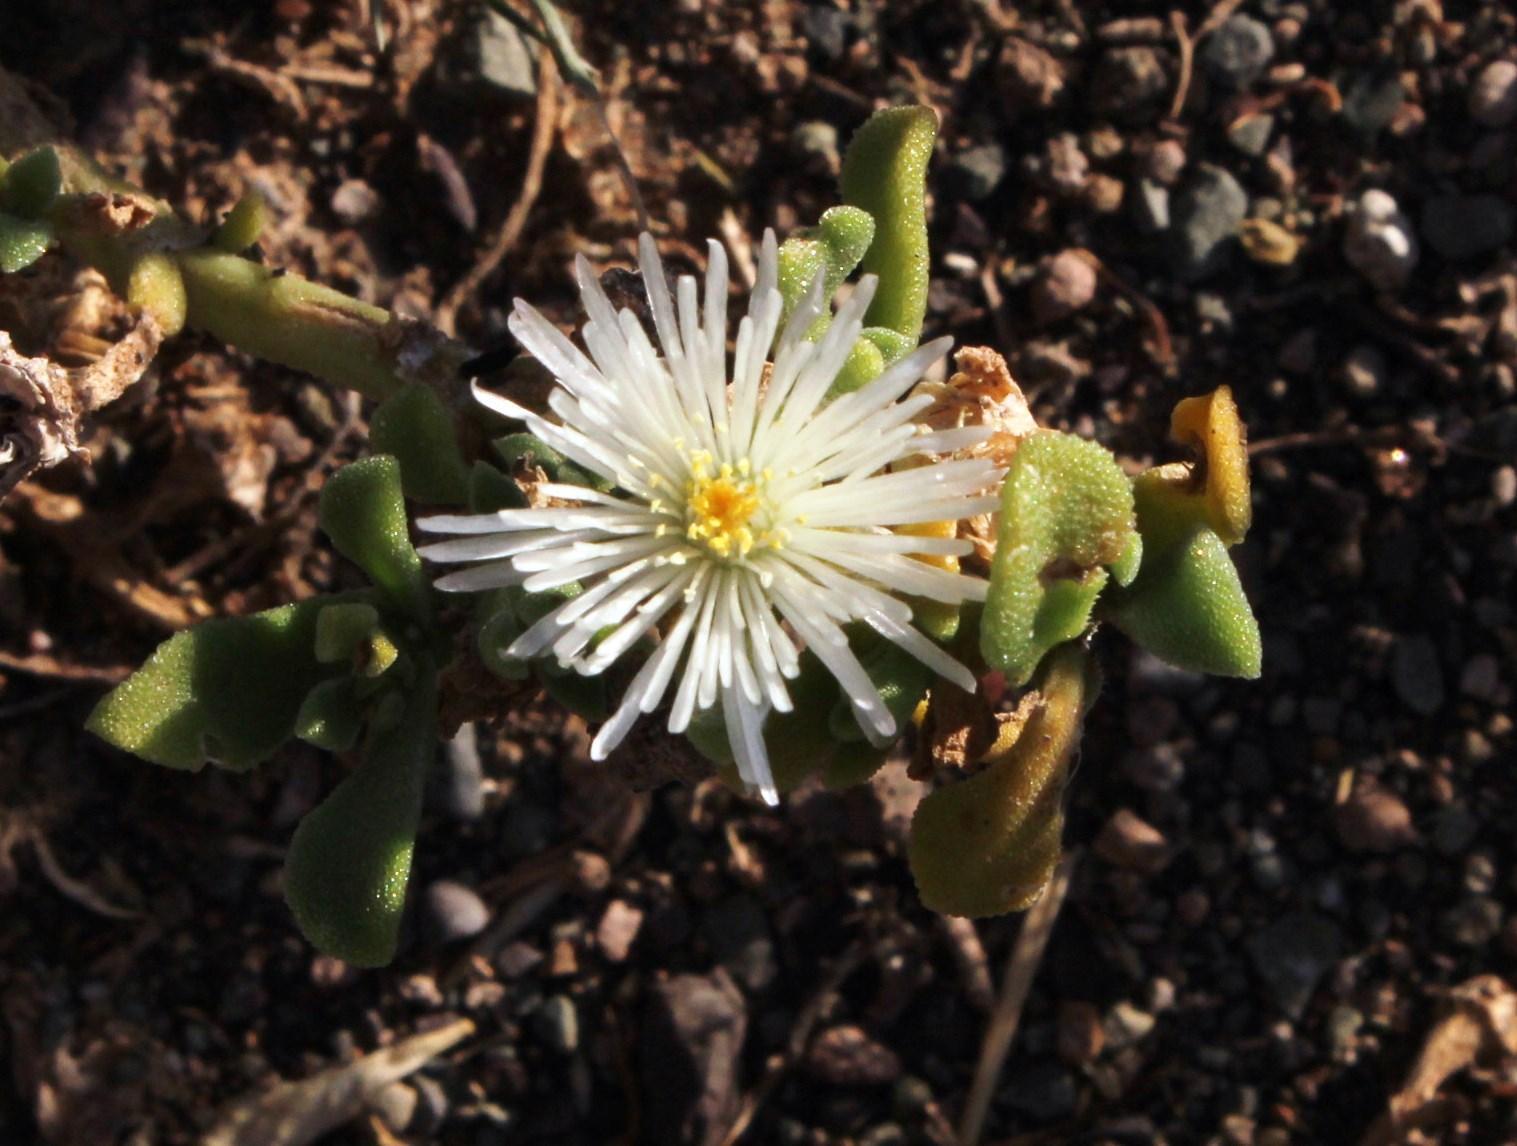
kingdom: Plantae
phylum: Tracheophyta
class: Magnoliopsida
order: Caryophyllales
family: Aizoaceae
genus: Mesembryanthemum
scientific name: Mesembryanthemum aitonis
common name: Angled iceplant
